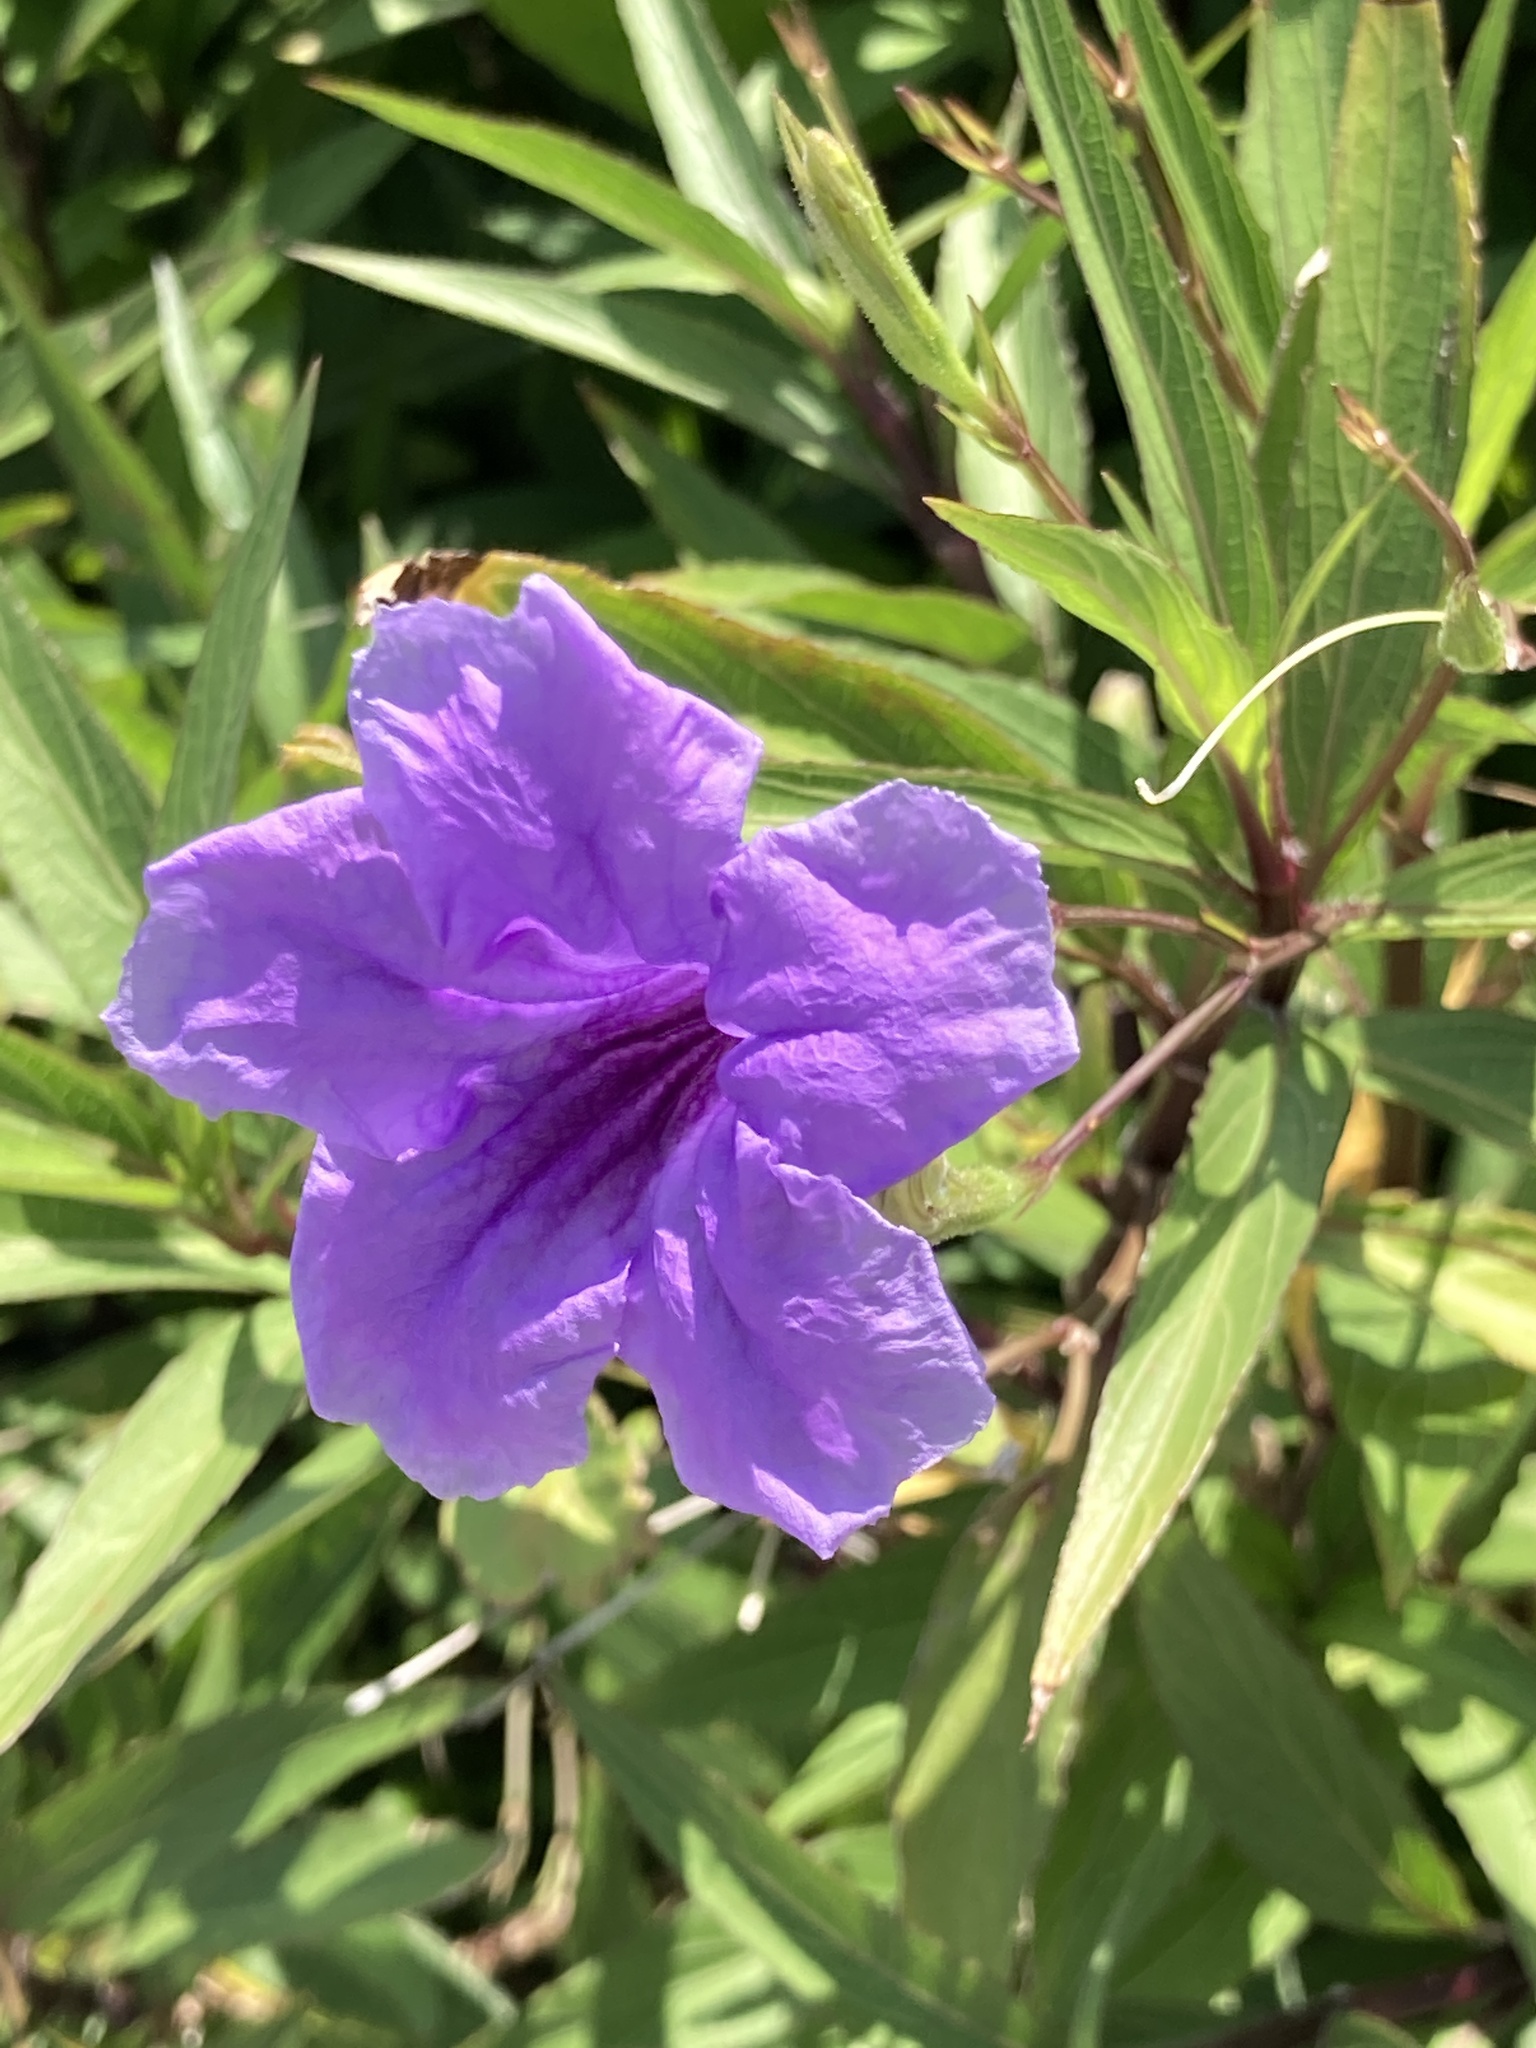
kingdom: Plantae
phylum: Tracheophyta
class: Magnoliopsida
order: Lamiales
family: Acanthaceae
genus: Ruellia
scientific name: Ruellia simplex
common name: Softseed wild petunia
